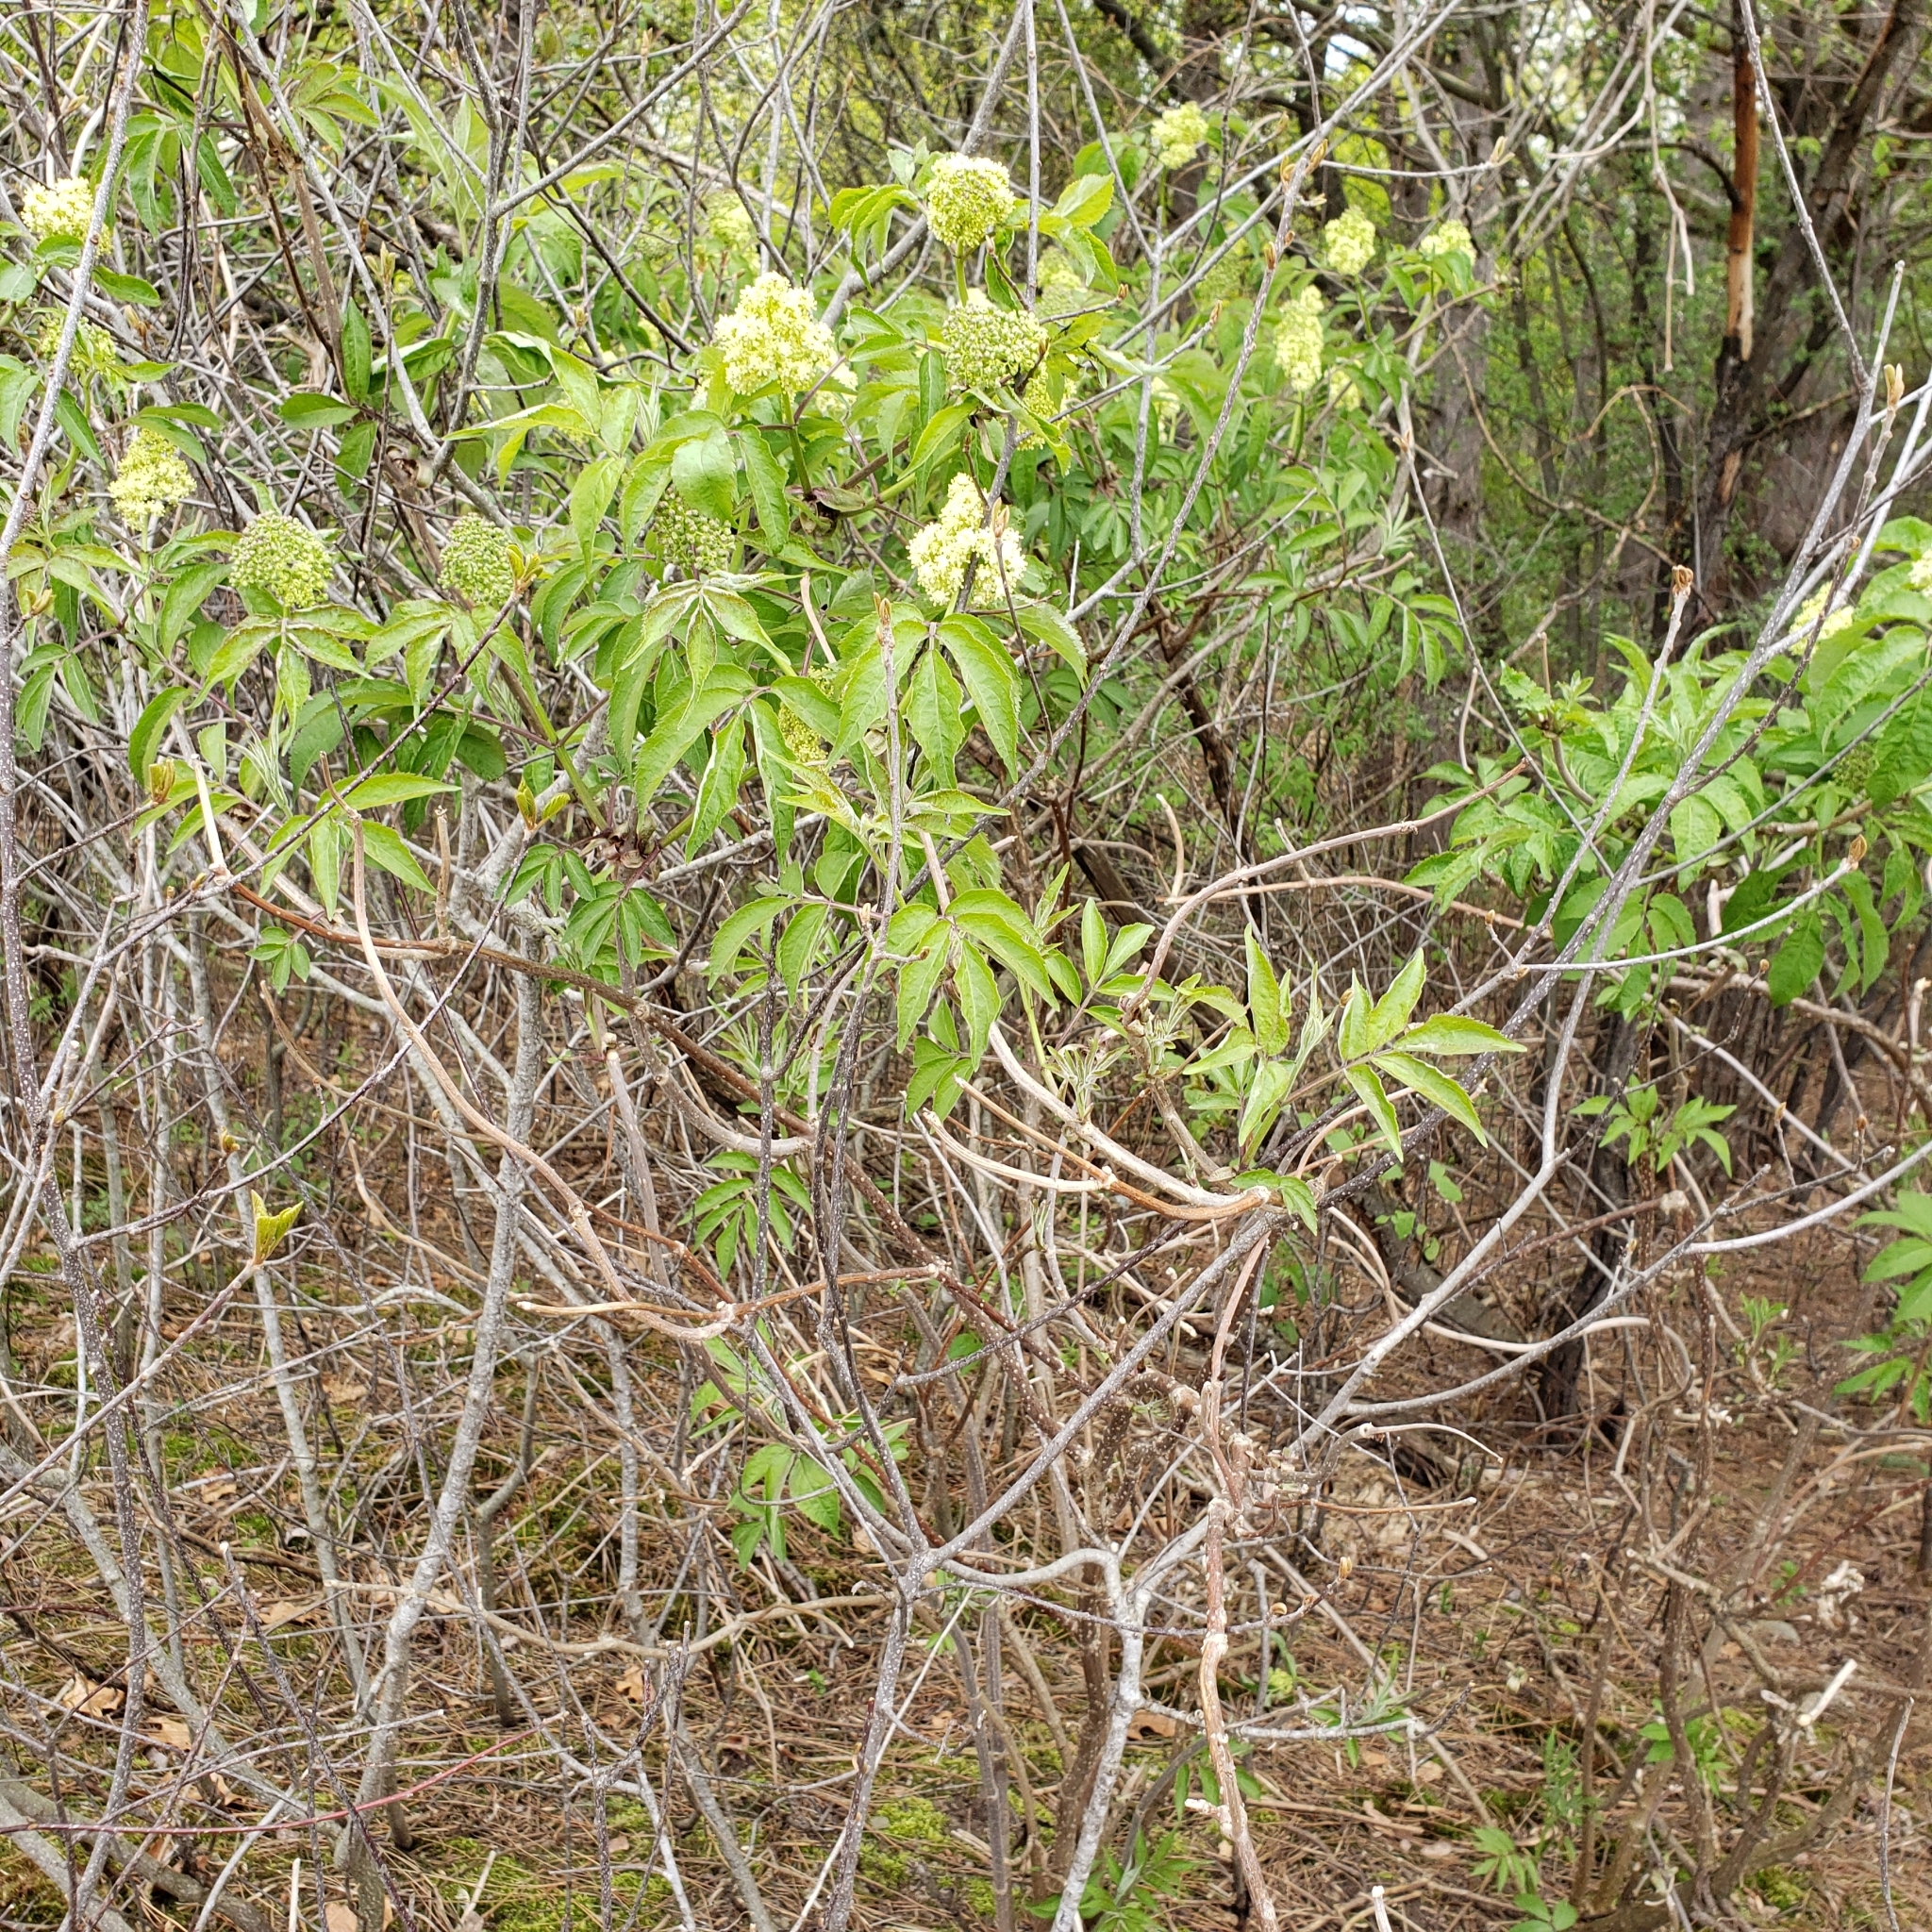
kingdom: Plantae
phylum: Tracheophyta
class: Magnoliopsida
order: Dipsacales
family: Viburnaceae
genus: Sambucus
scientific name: Sambucus racemosa
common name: Red-berried elder
